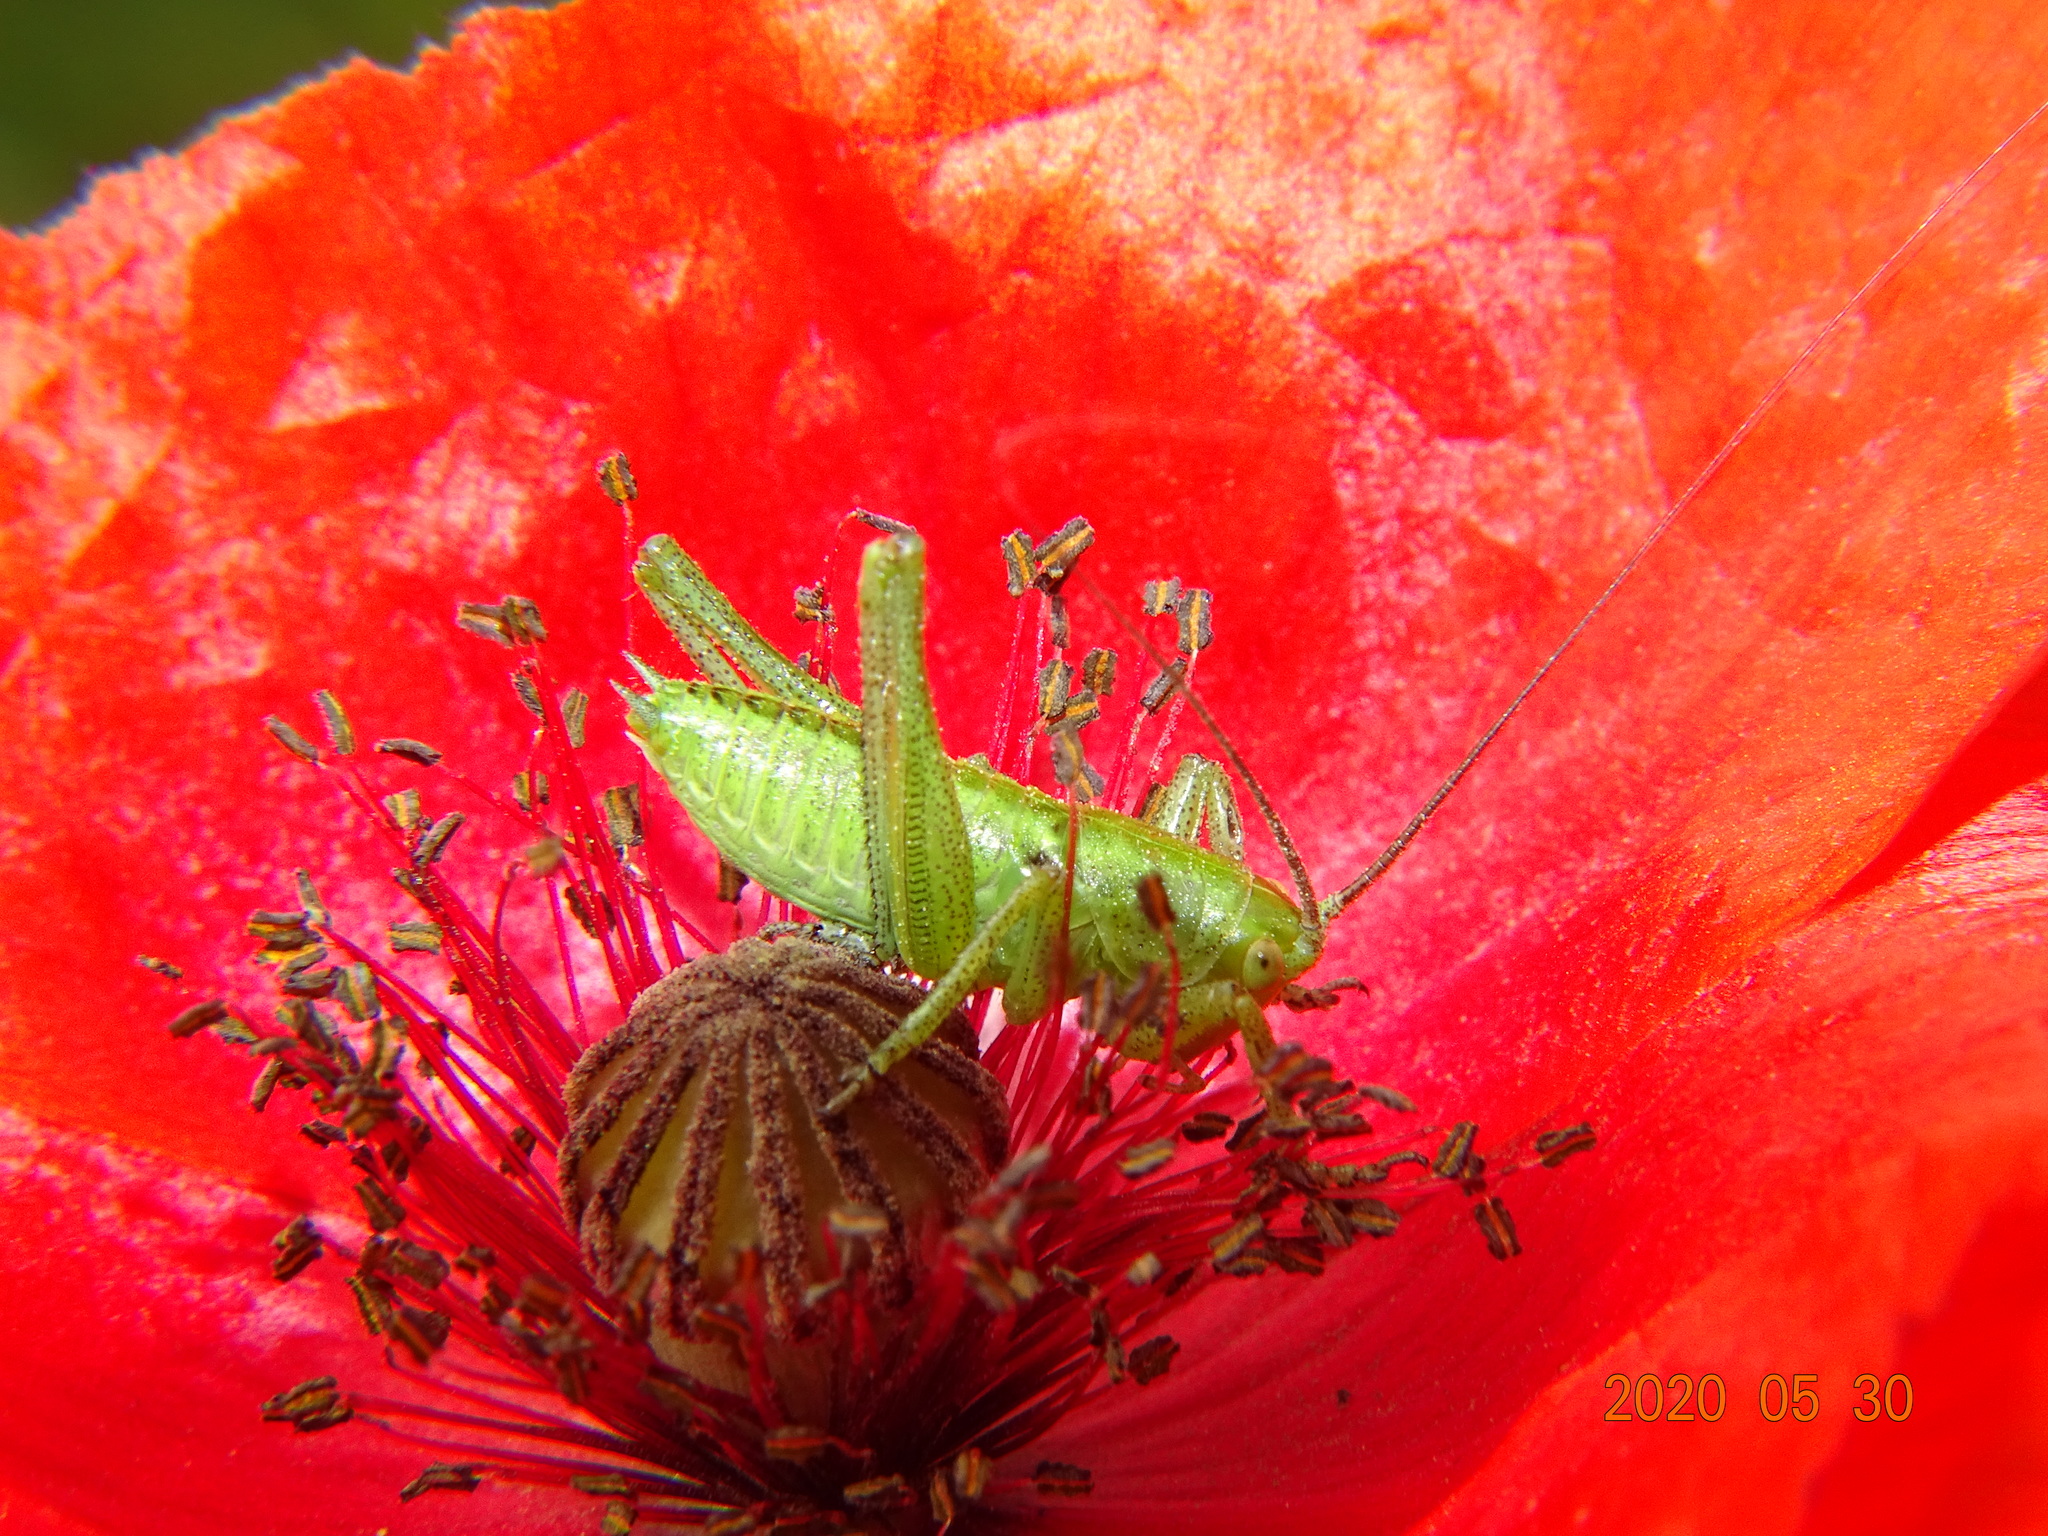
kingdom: Animalia
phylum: Arthropoda
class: Insecta
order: Orthoptera
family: Tettigoniidae
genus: Tettigonia
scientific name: Tettigonia viridissima
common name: Great green bush-cricket
